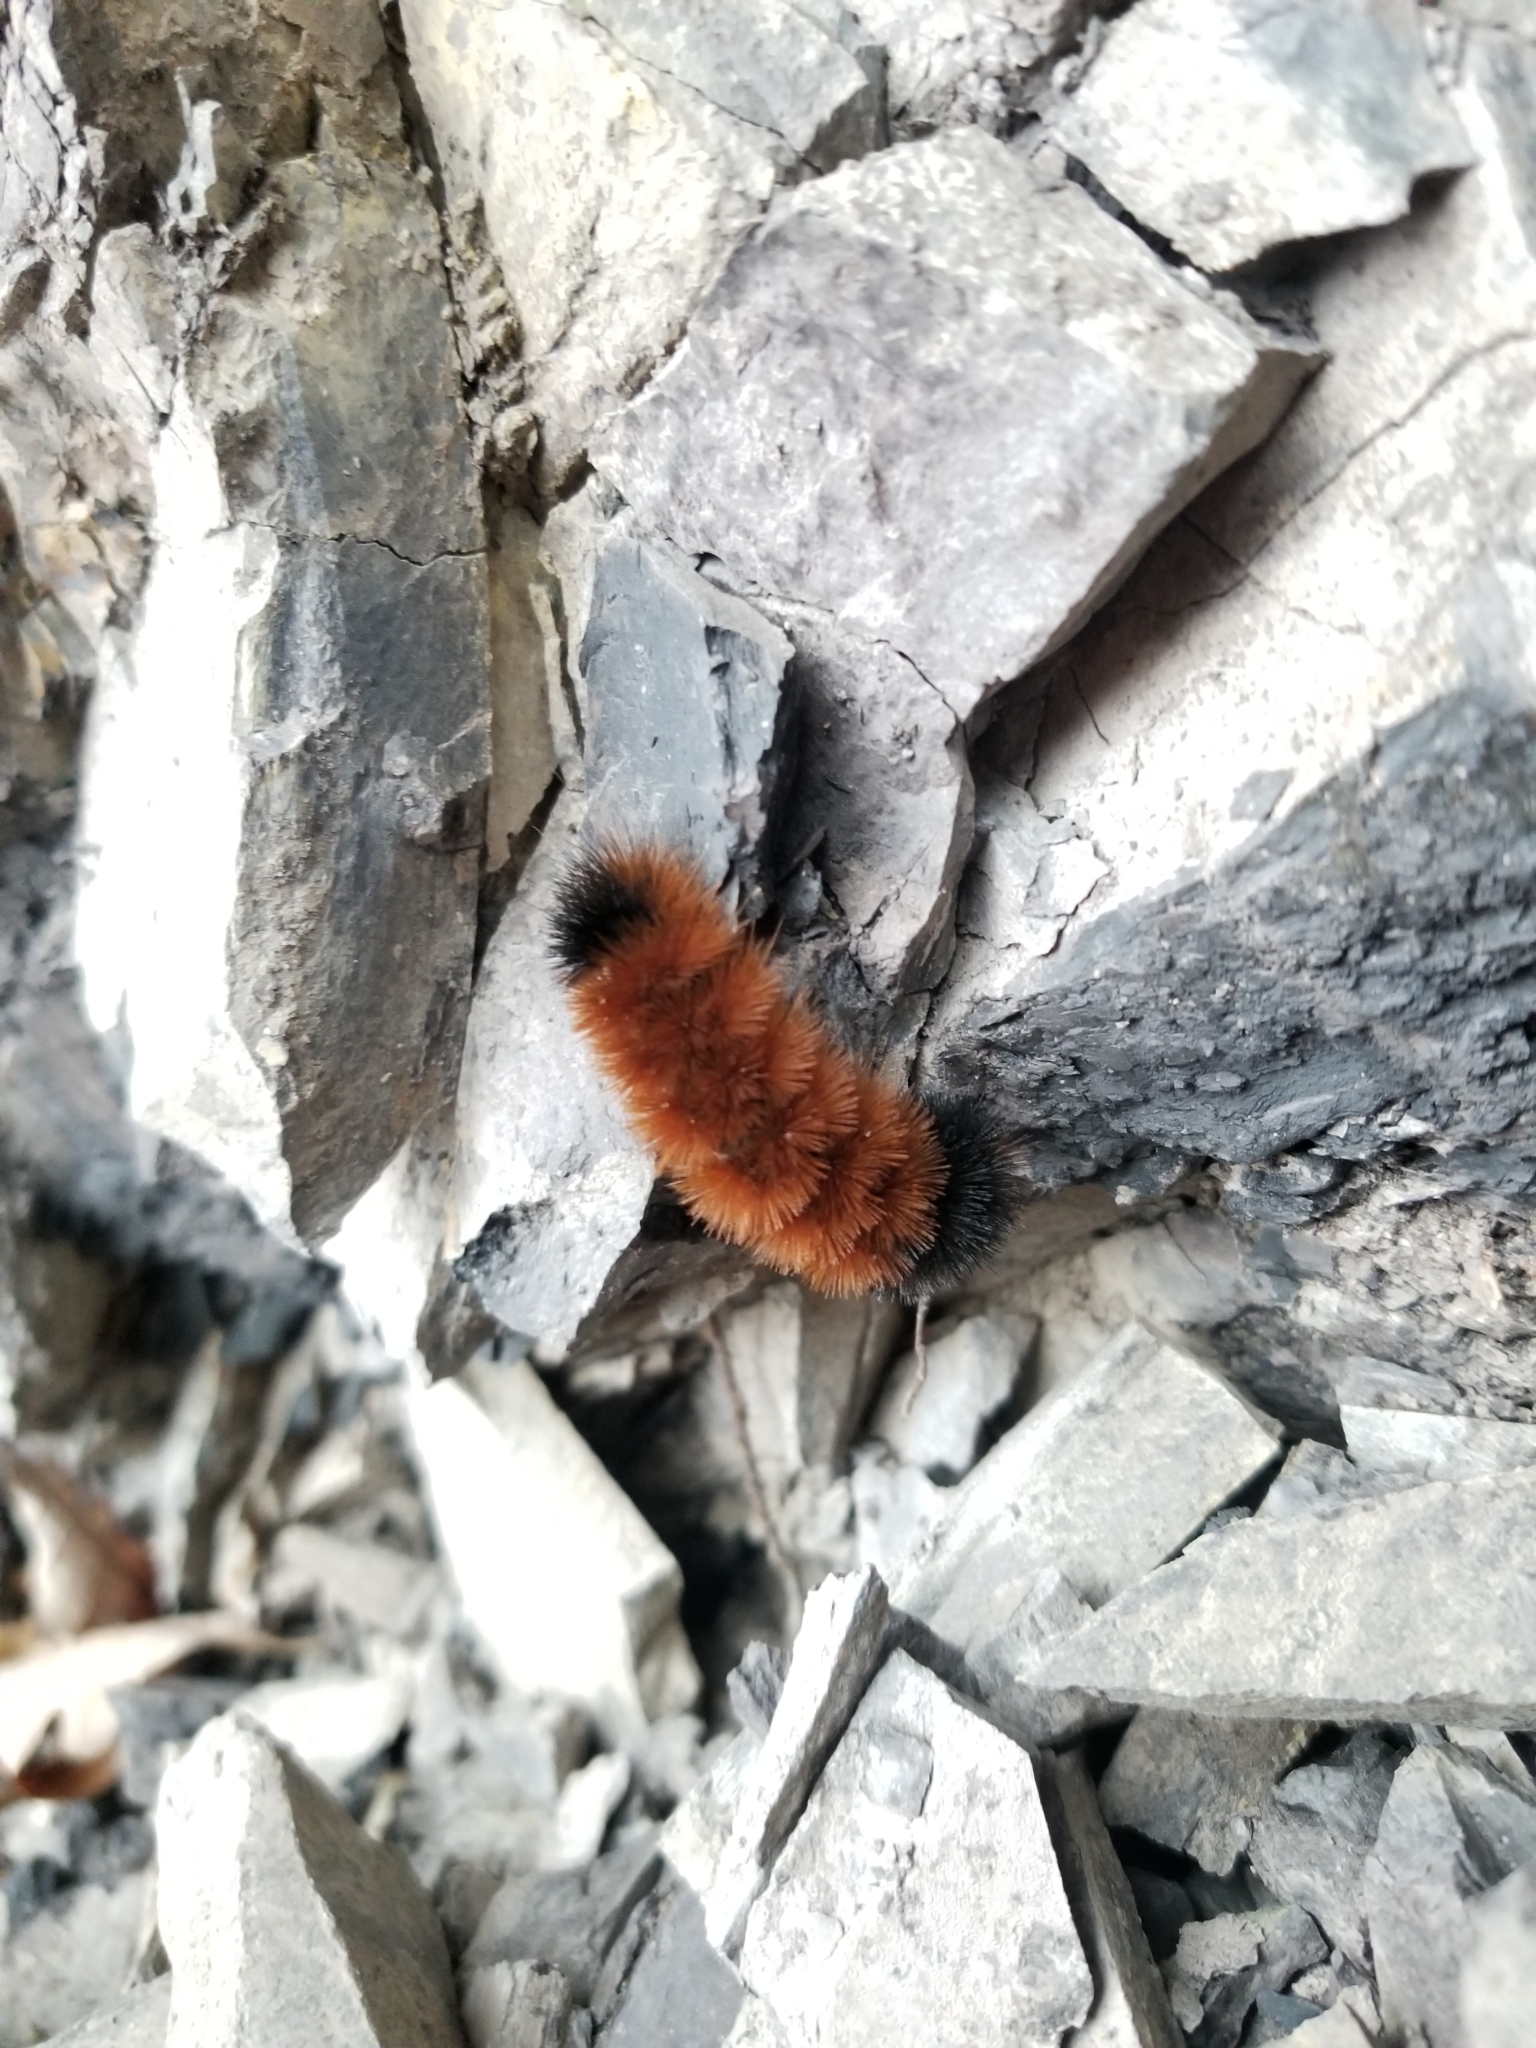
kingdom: Animalia
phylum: Arthropoda
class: Insecta
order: Lepidoptera
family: Erebidae
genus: Pyrrharctia
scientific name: Pyrrharctia isabella
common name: Isabella tiger moth
